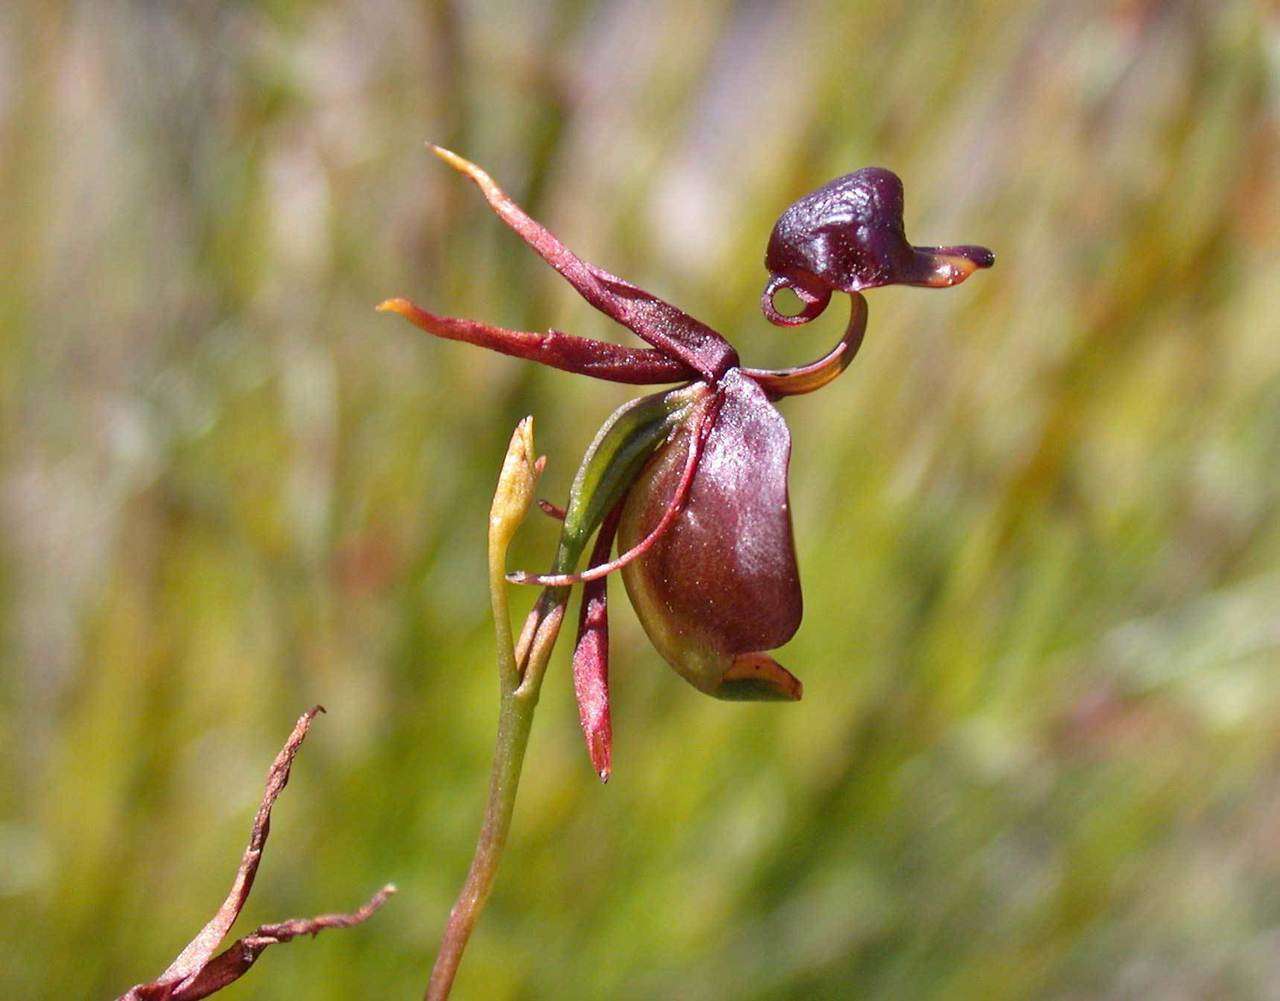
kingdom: Plantae
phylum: Tracheophyta
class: Liliopsida
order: Asparagales
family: Orchidaceae
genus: Caleana
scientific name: Caleana major
